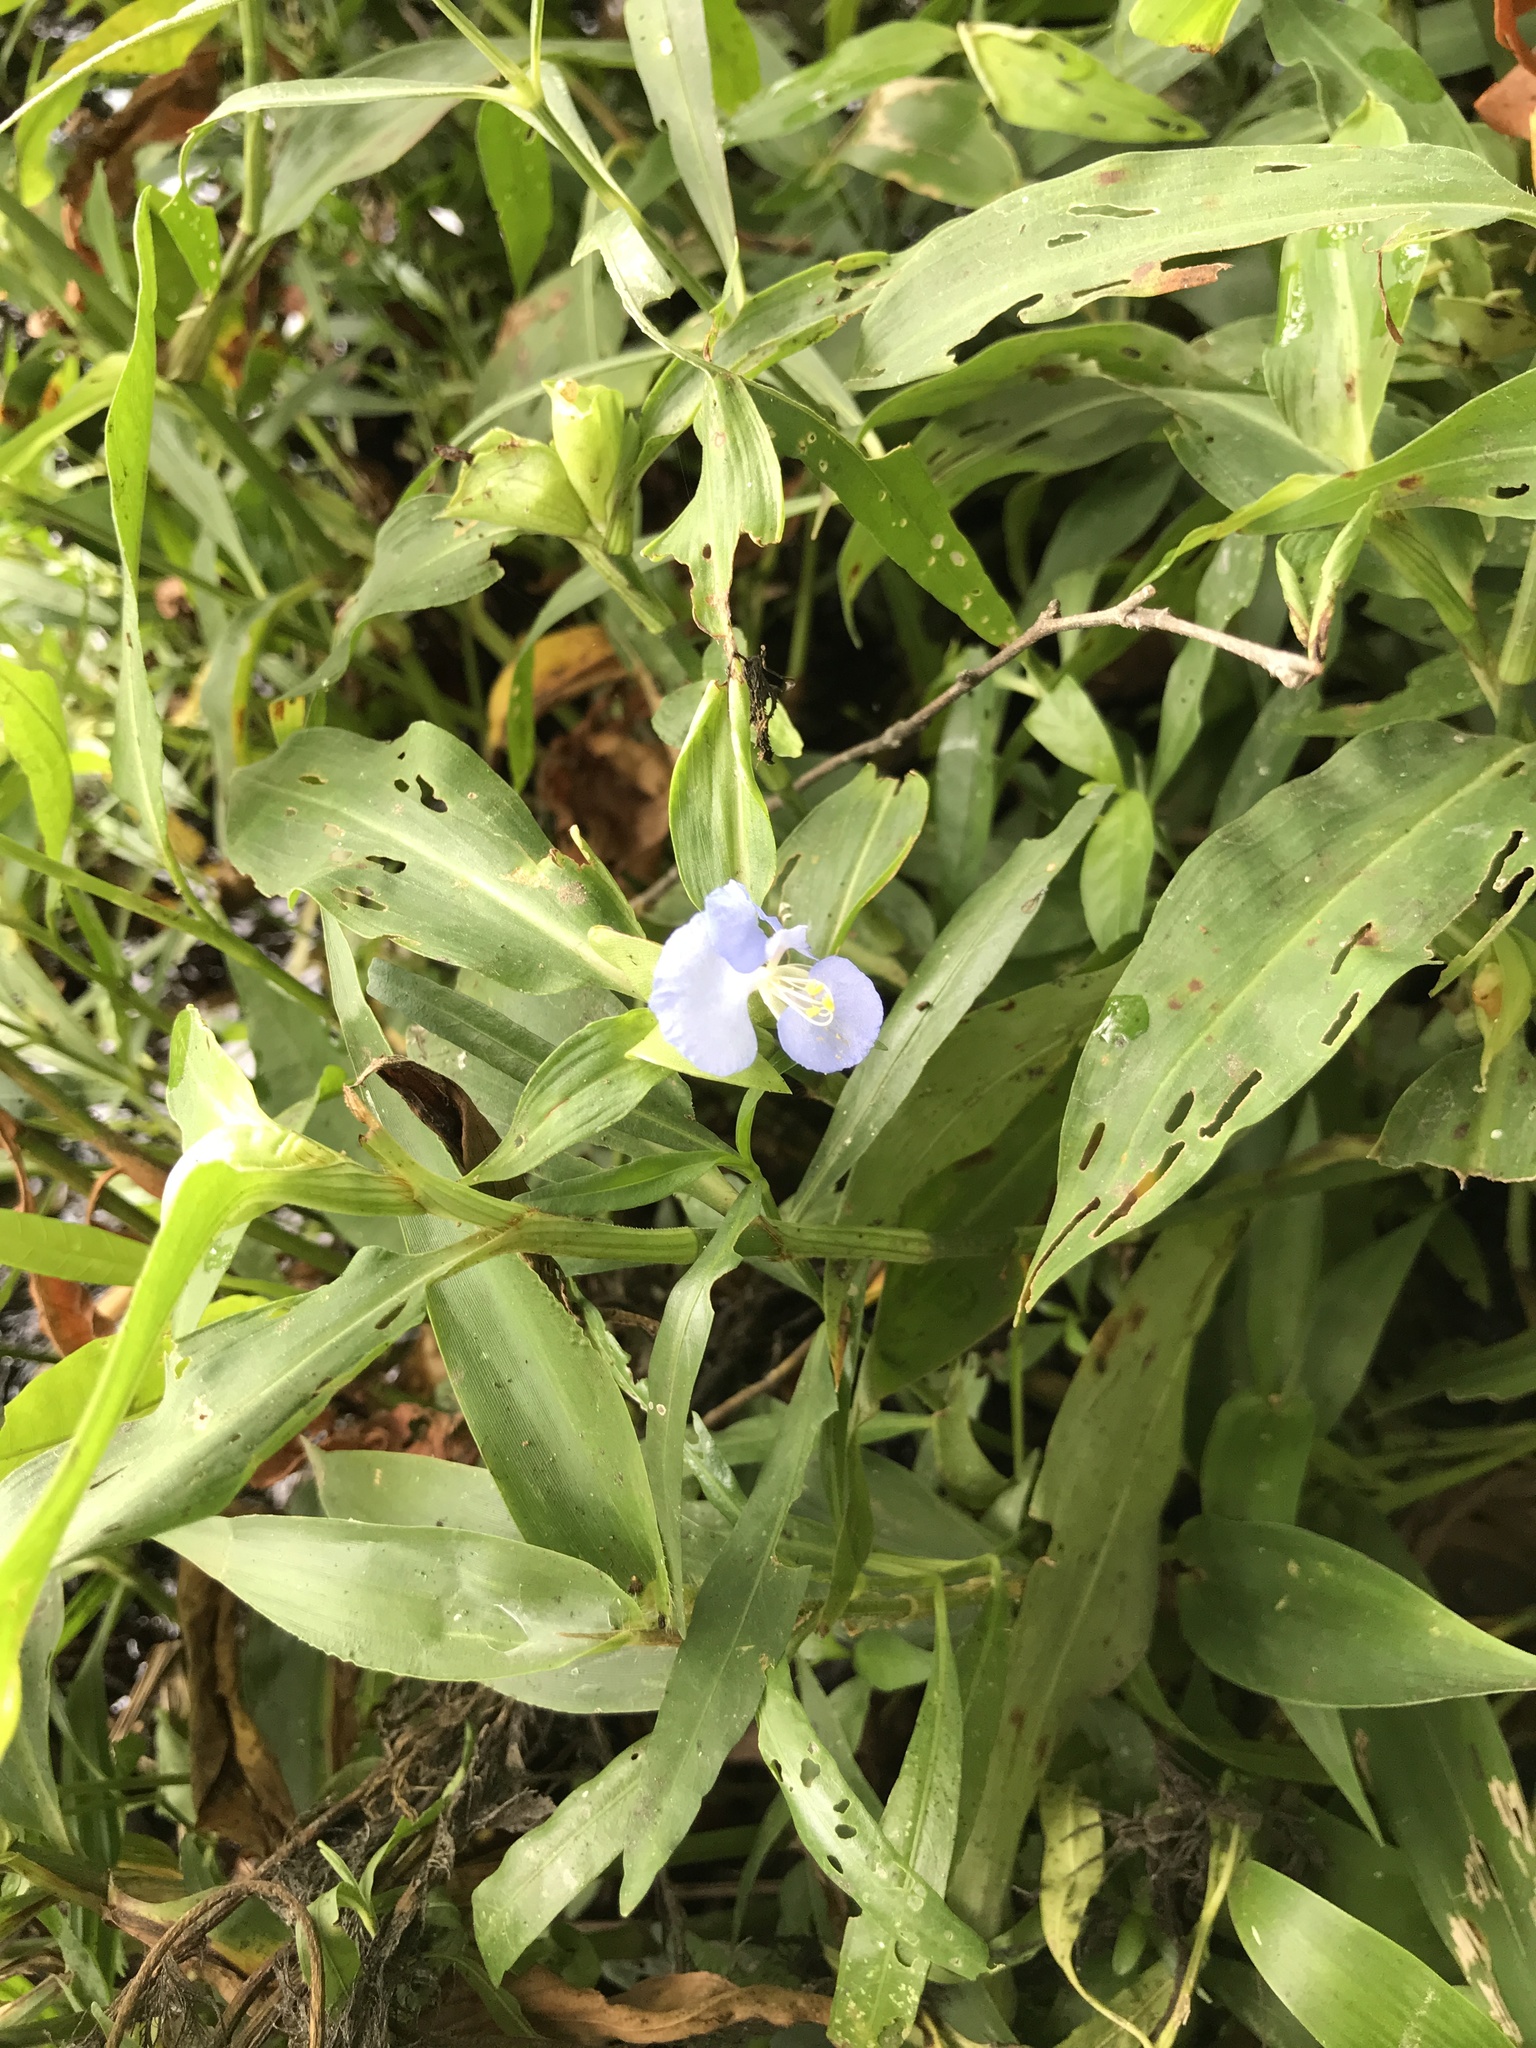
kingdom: Plantae
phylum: Tracheophyta
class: Liliopsida
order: Commelinales
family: Commelinaceae
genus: Commelina
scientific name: Commelina virginica
